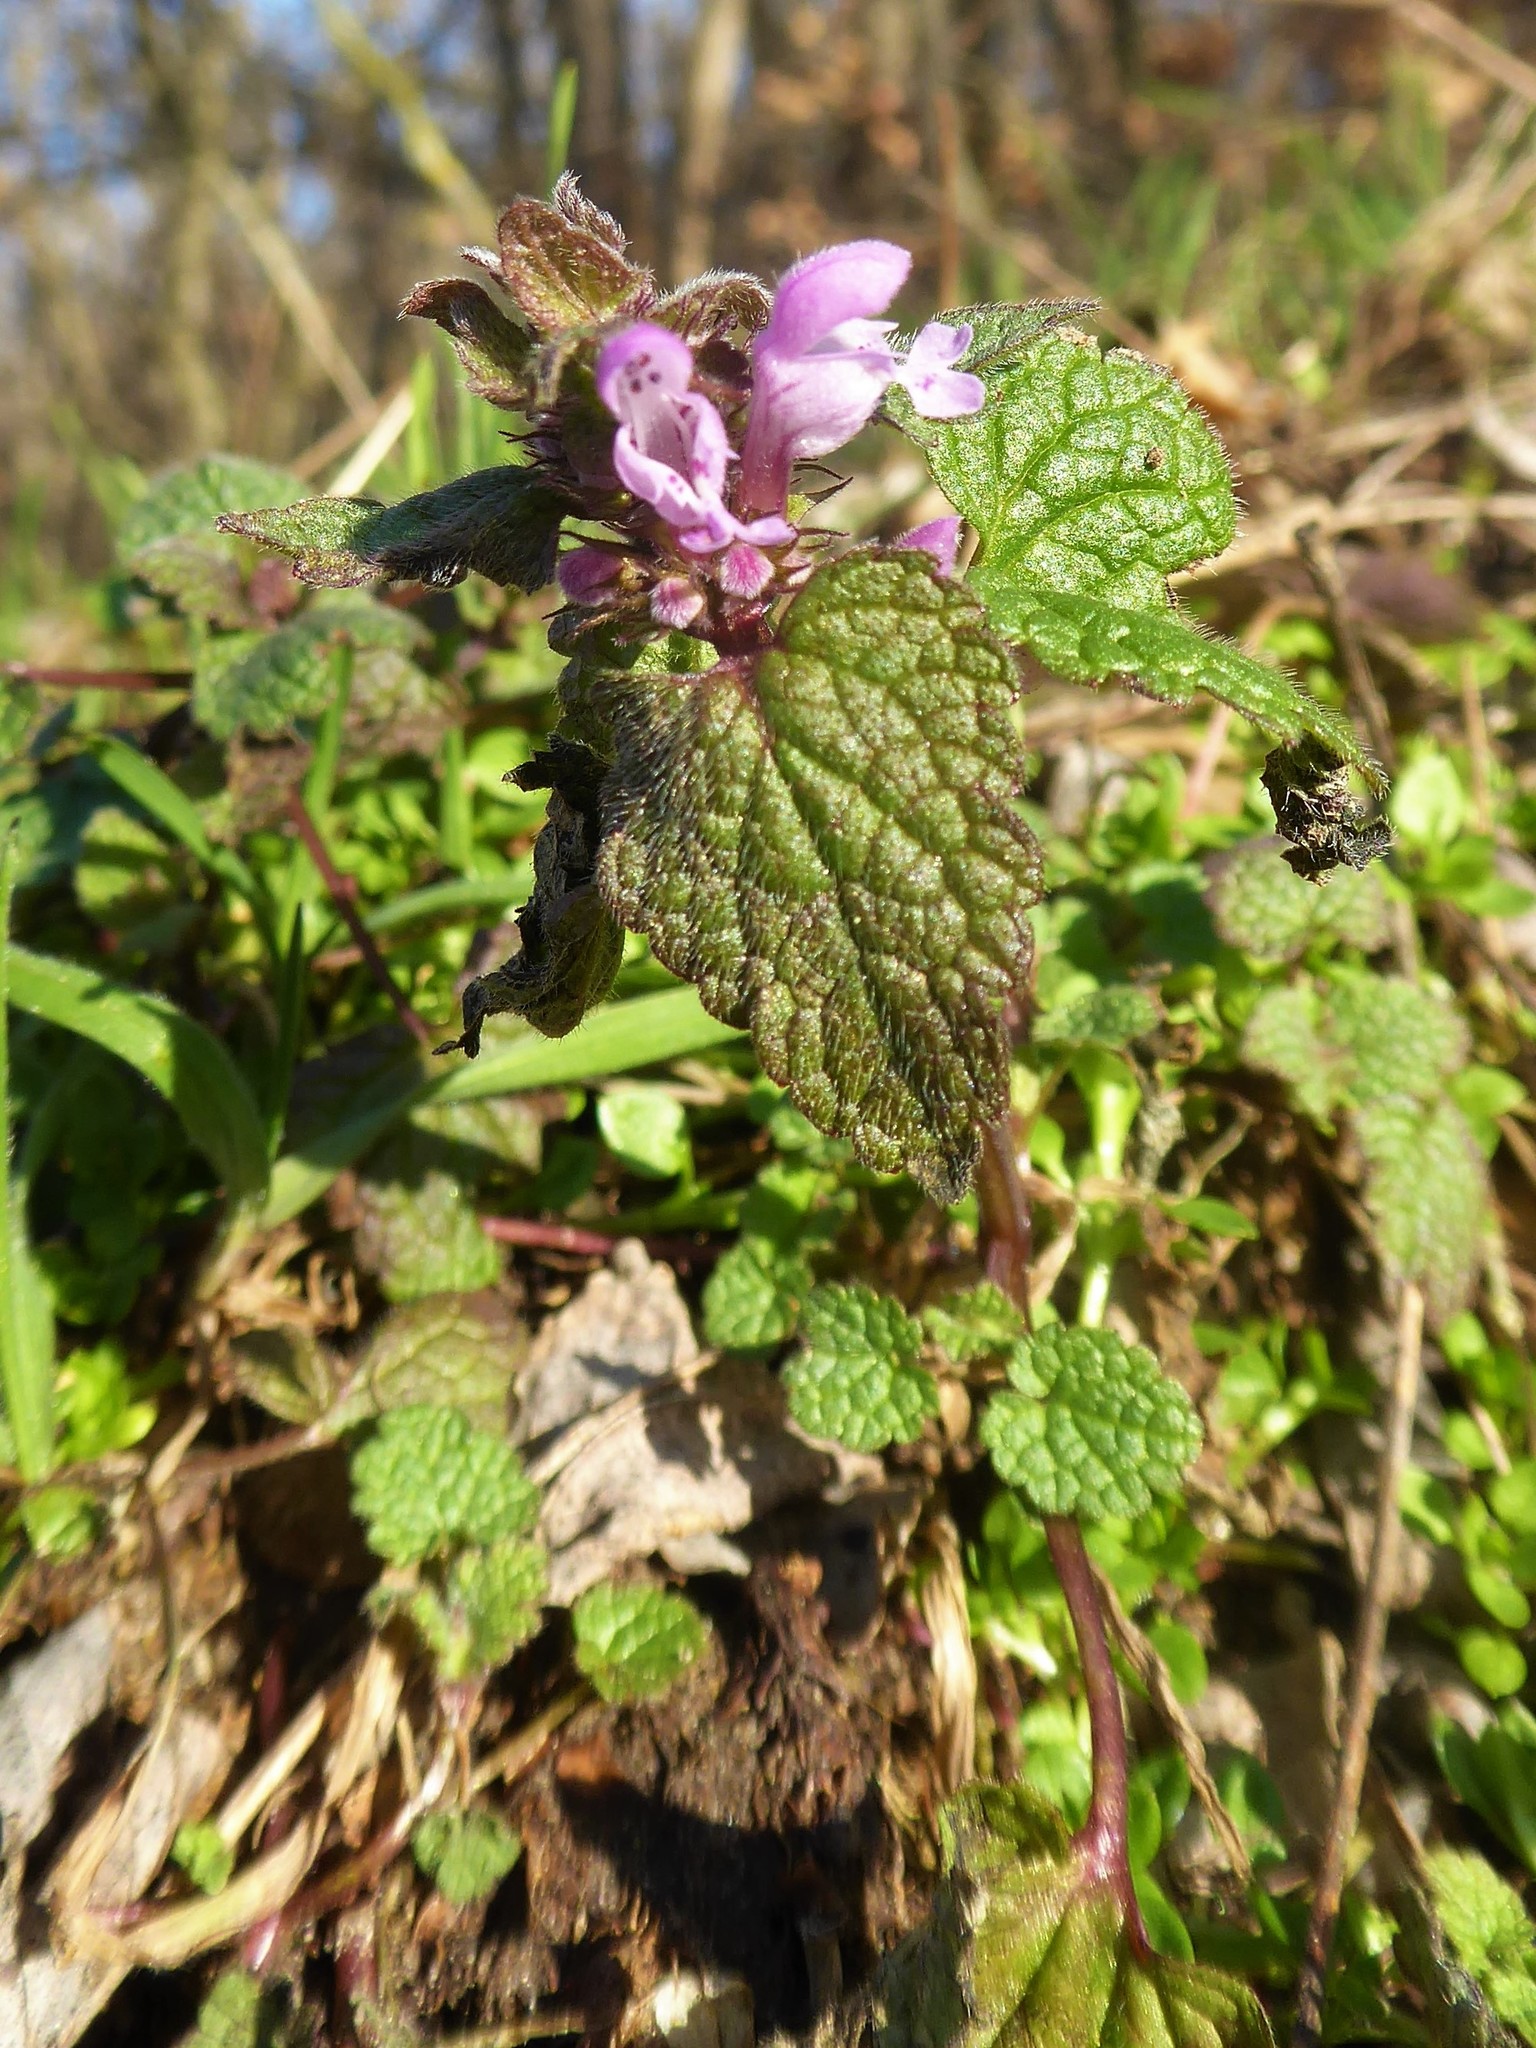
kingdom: Plantae
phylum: Tracheophyta
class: Magnoliopsida
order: Lamiales
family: Lamiaceae
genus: Lamium
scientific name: Lamium purpureum
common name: Red dead-nettle
